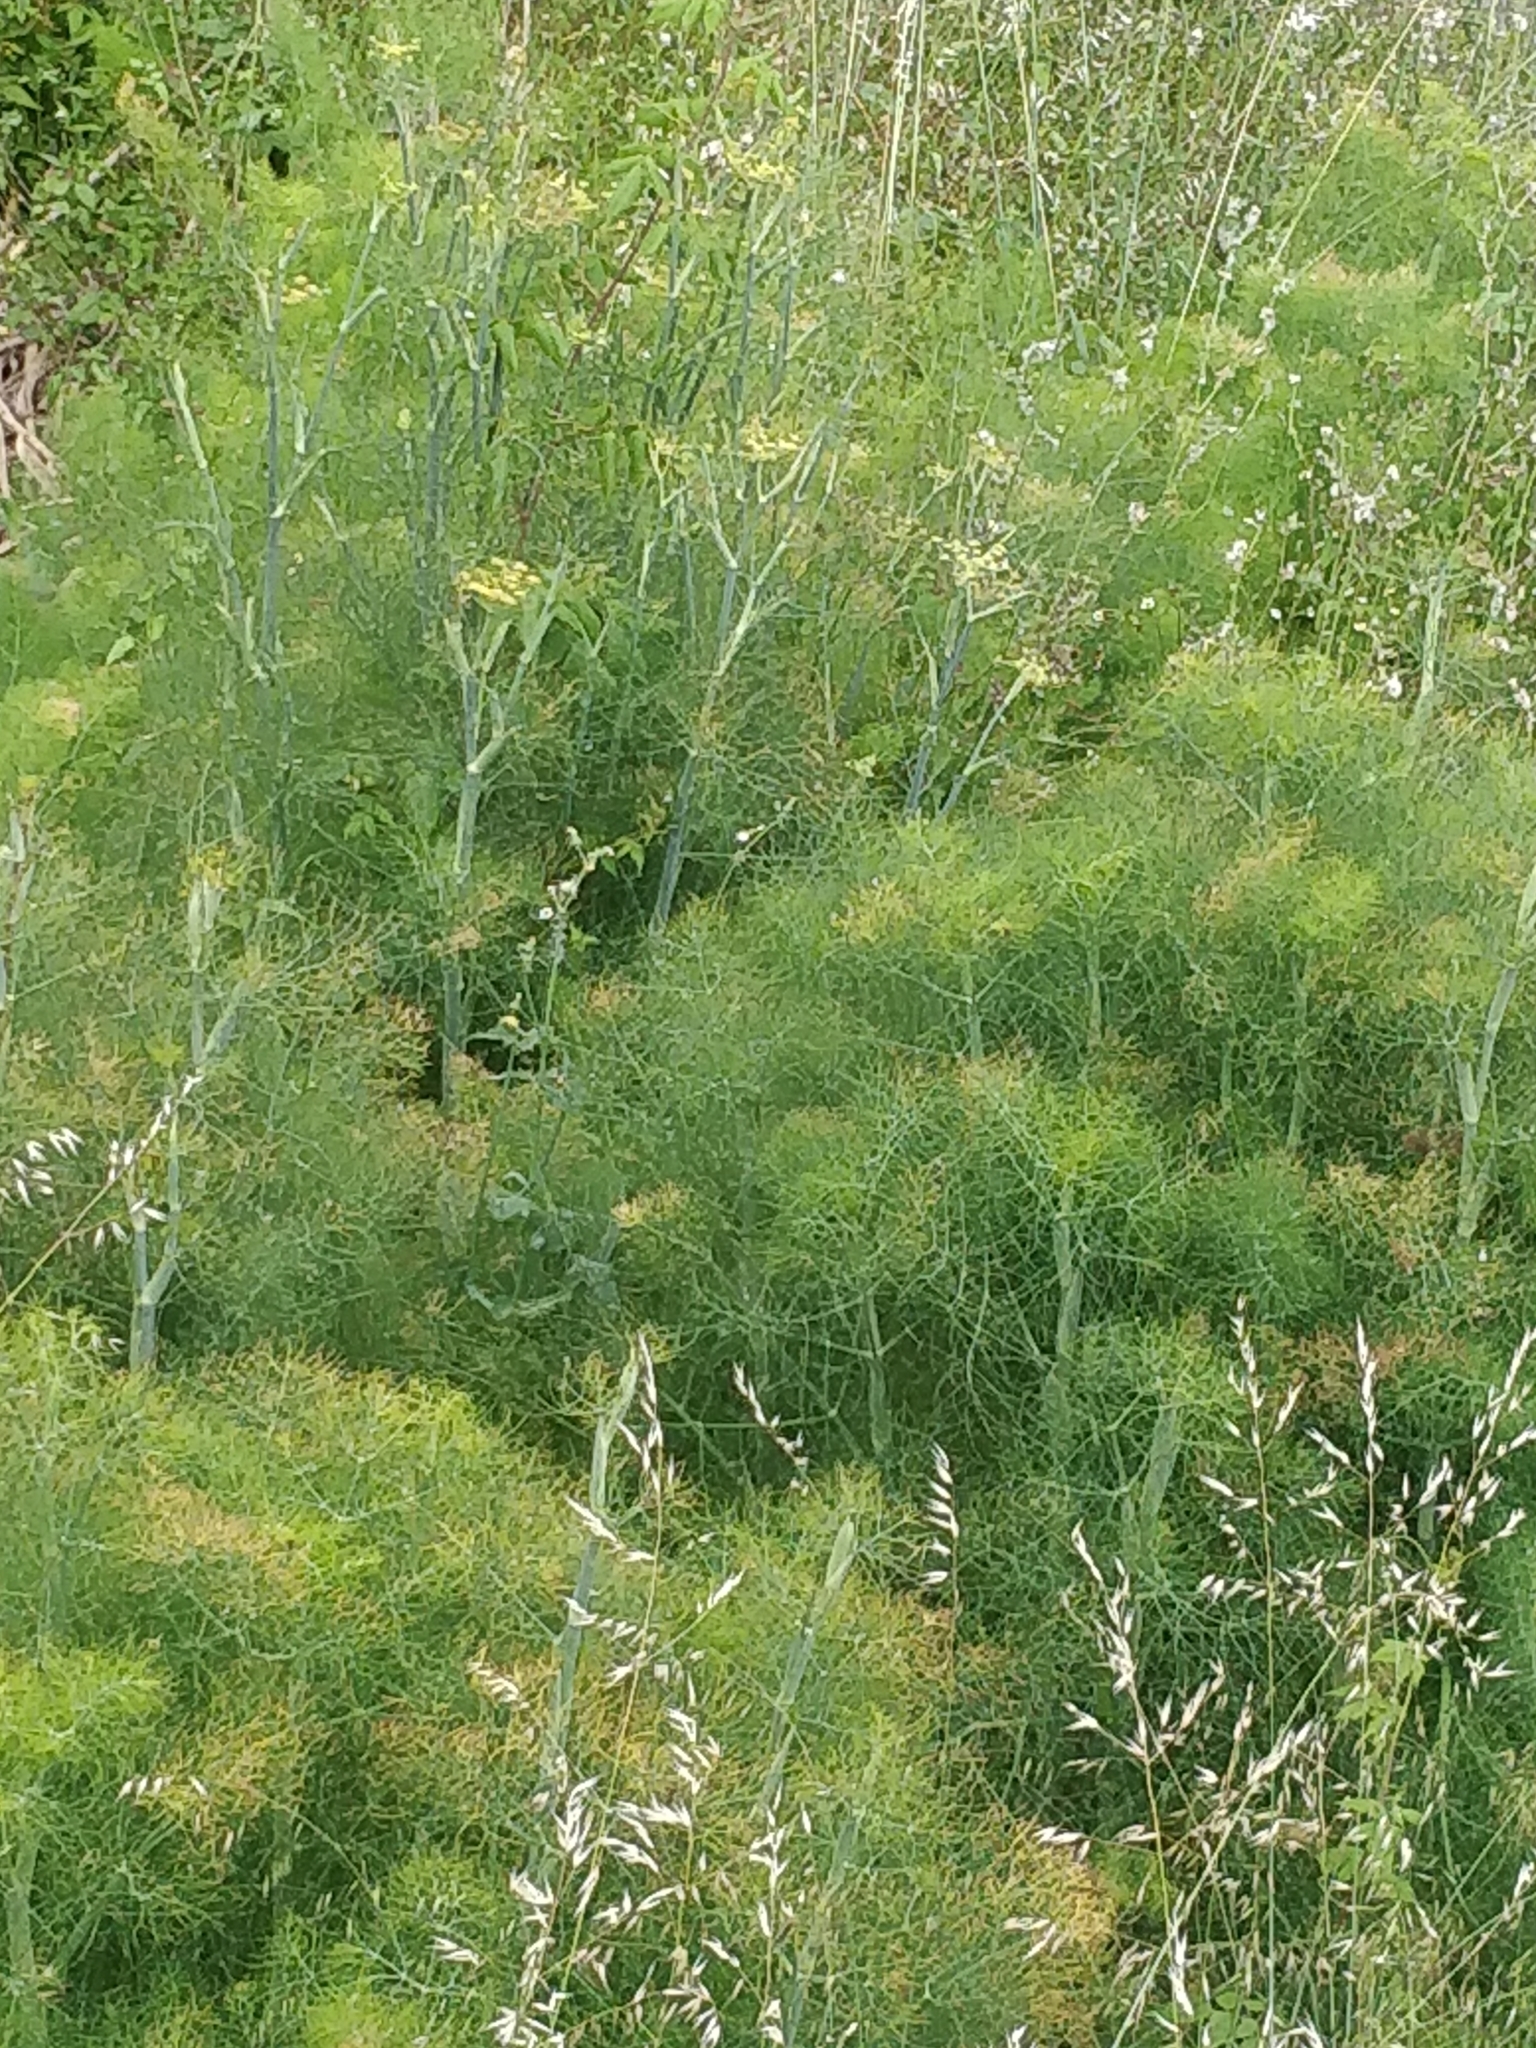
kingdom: Plantae
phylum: Tracheophyta
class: Magnoliopsida
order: Apiales
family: Apiaceae
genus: Foeniculum
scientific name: Foeniculum vulgare
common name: Fennel
